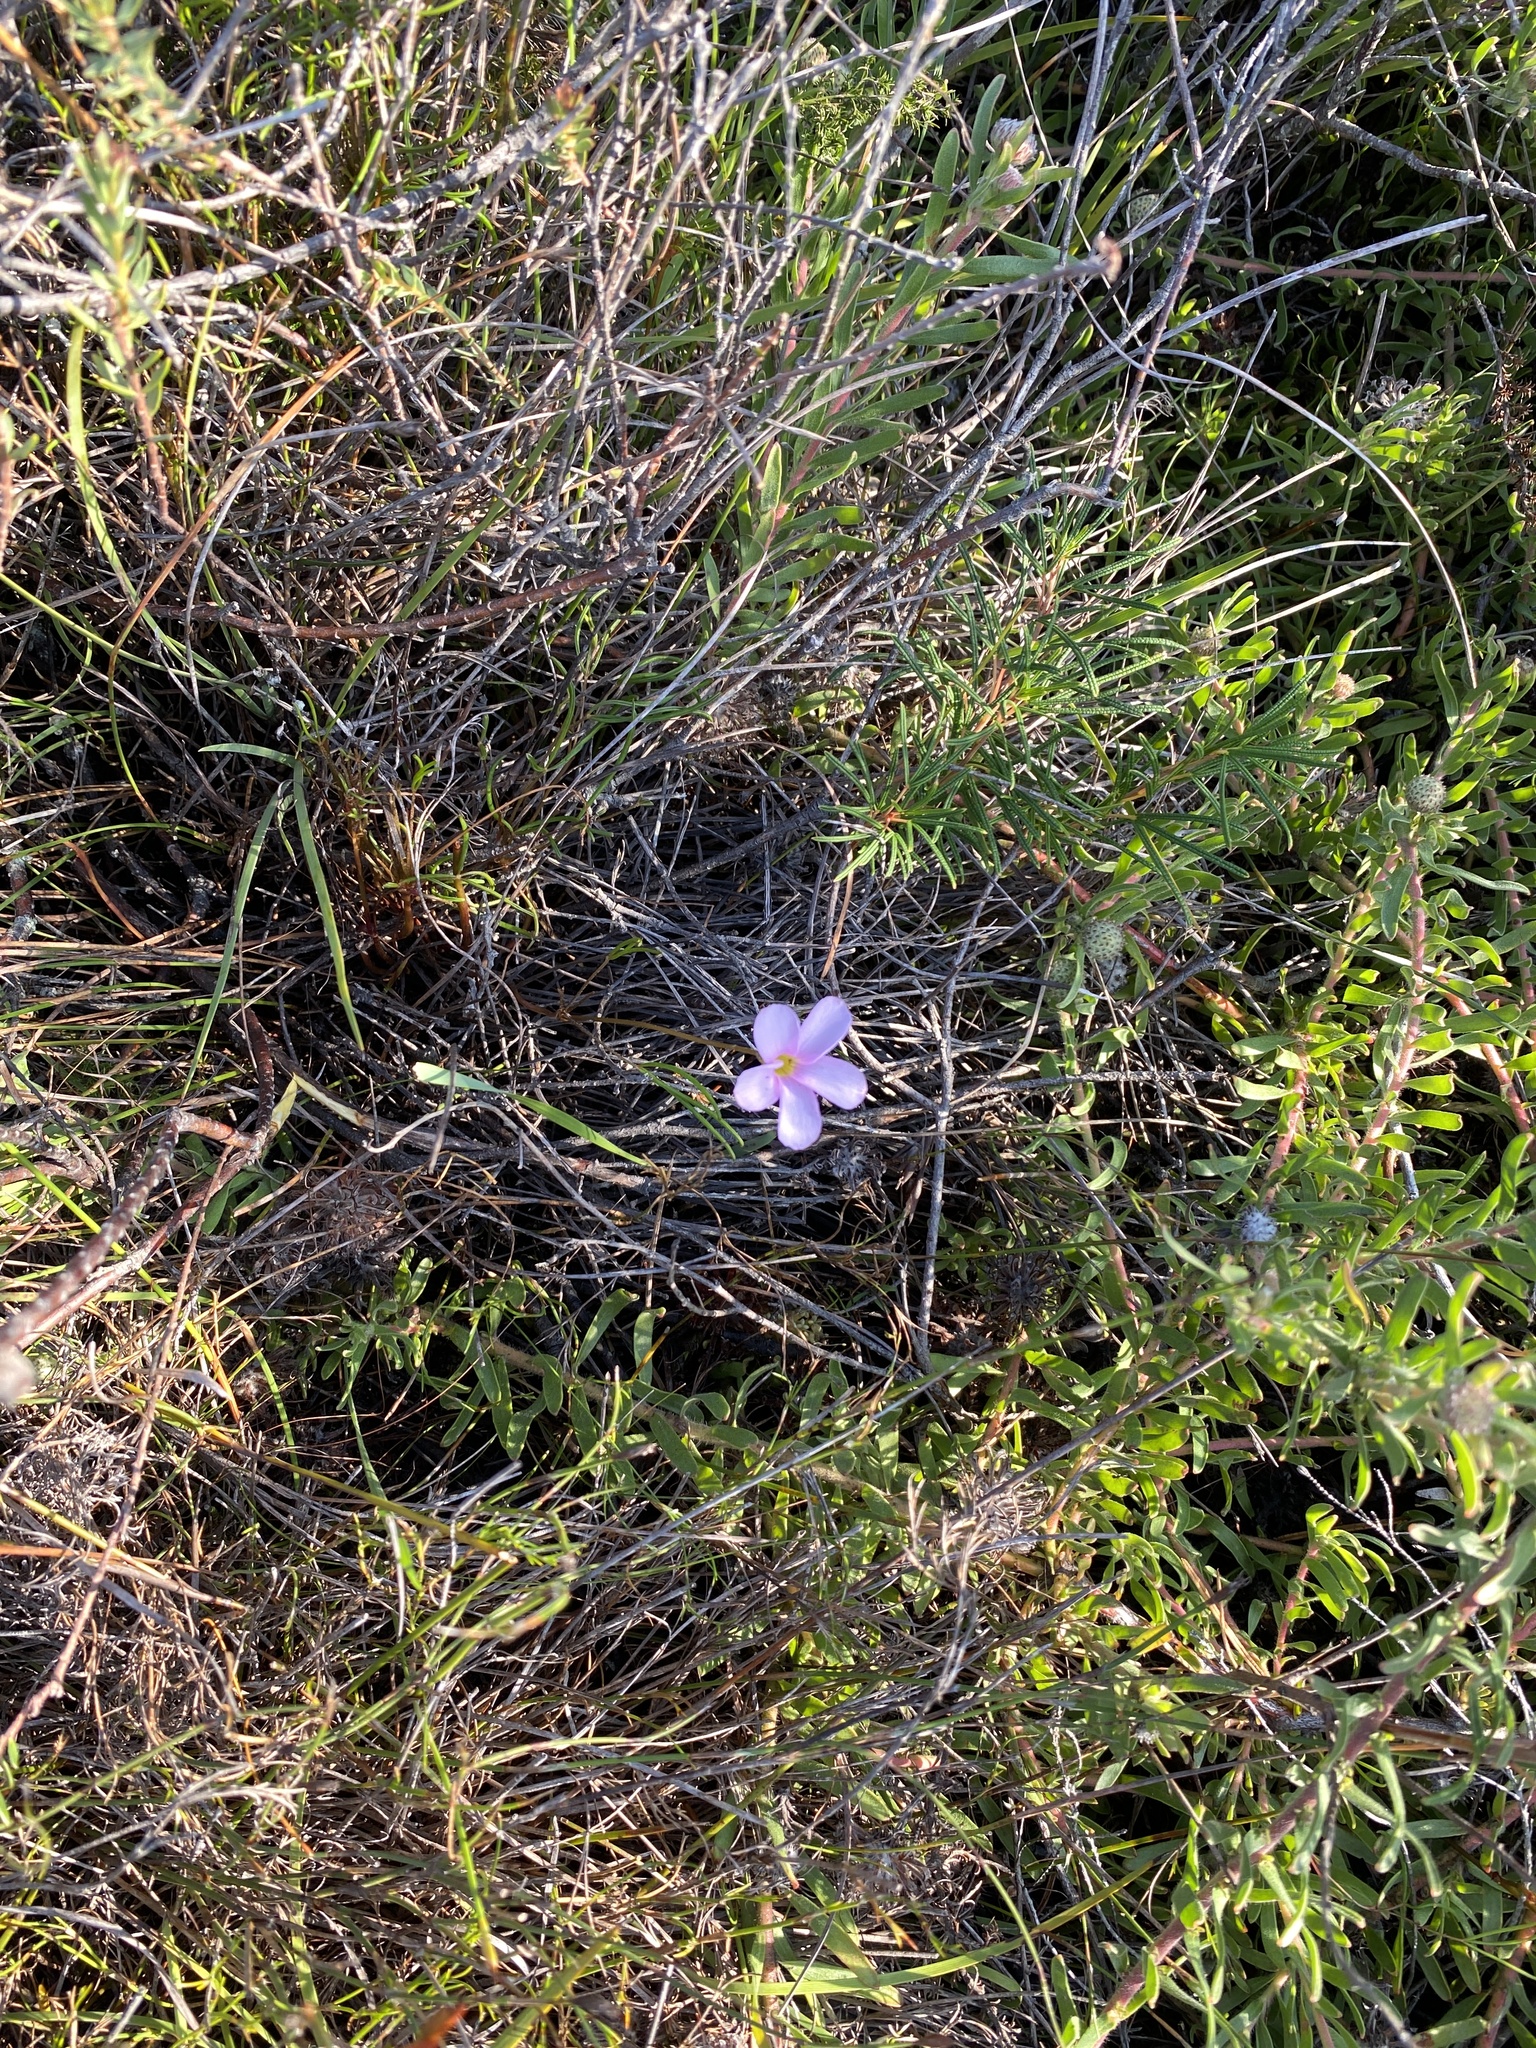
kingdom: Plantae
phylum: Tracheophyta
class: Magnoliopsida
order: Oxalidales
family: Oxalidaceae
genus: Oxalis
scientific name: Oxalis polyphylla
